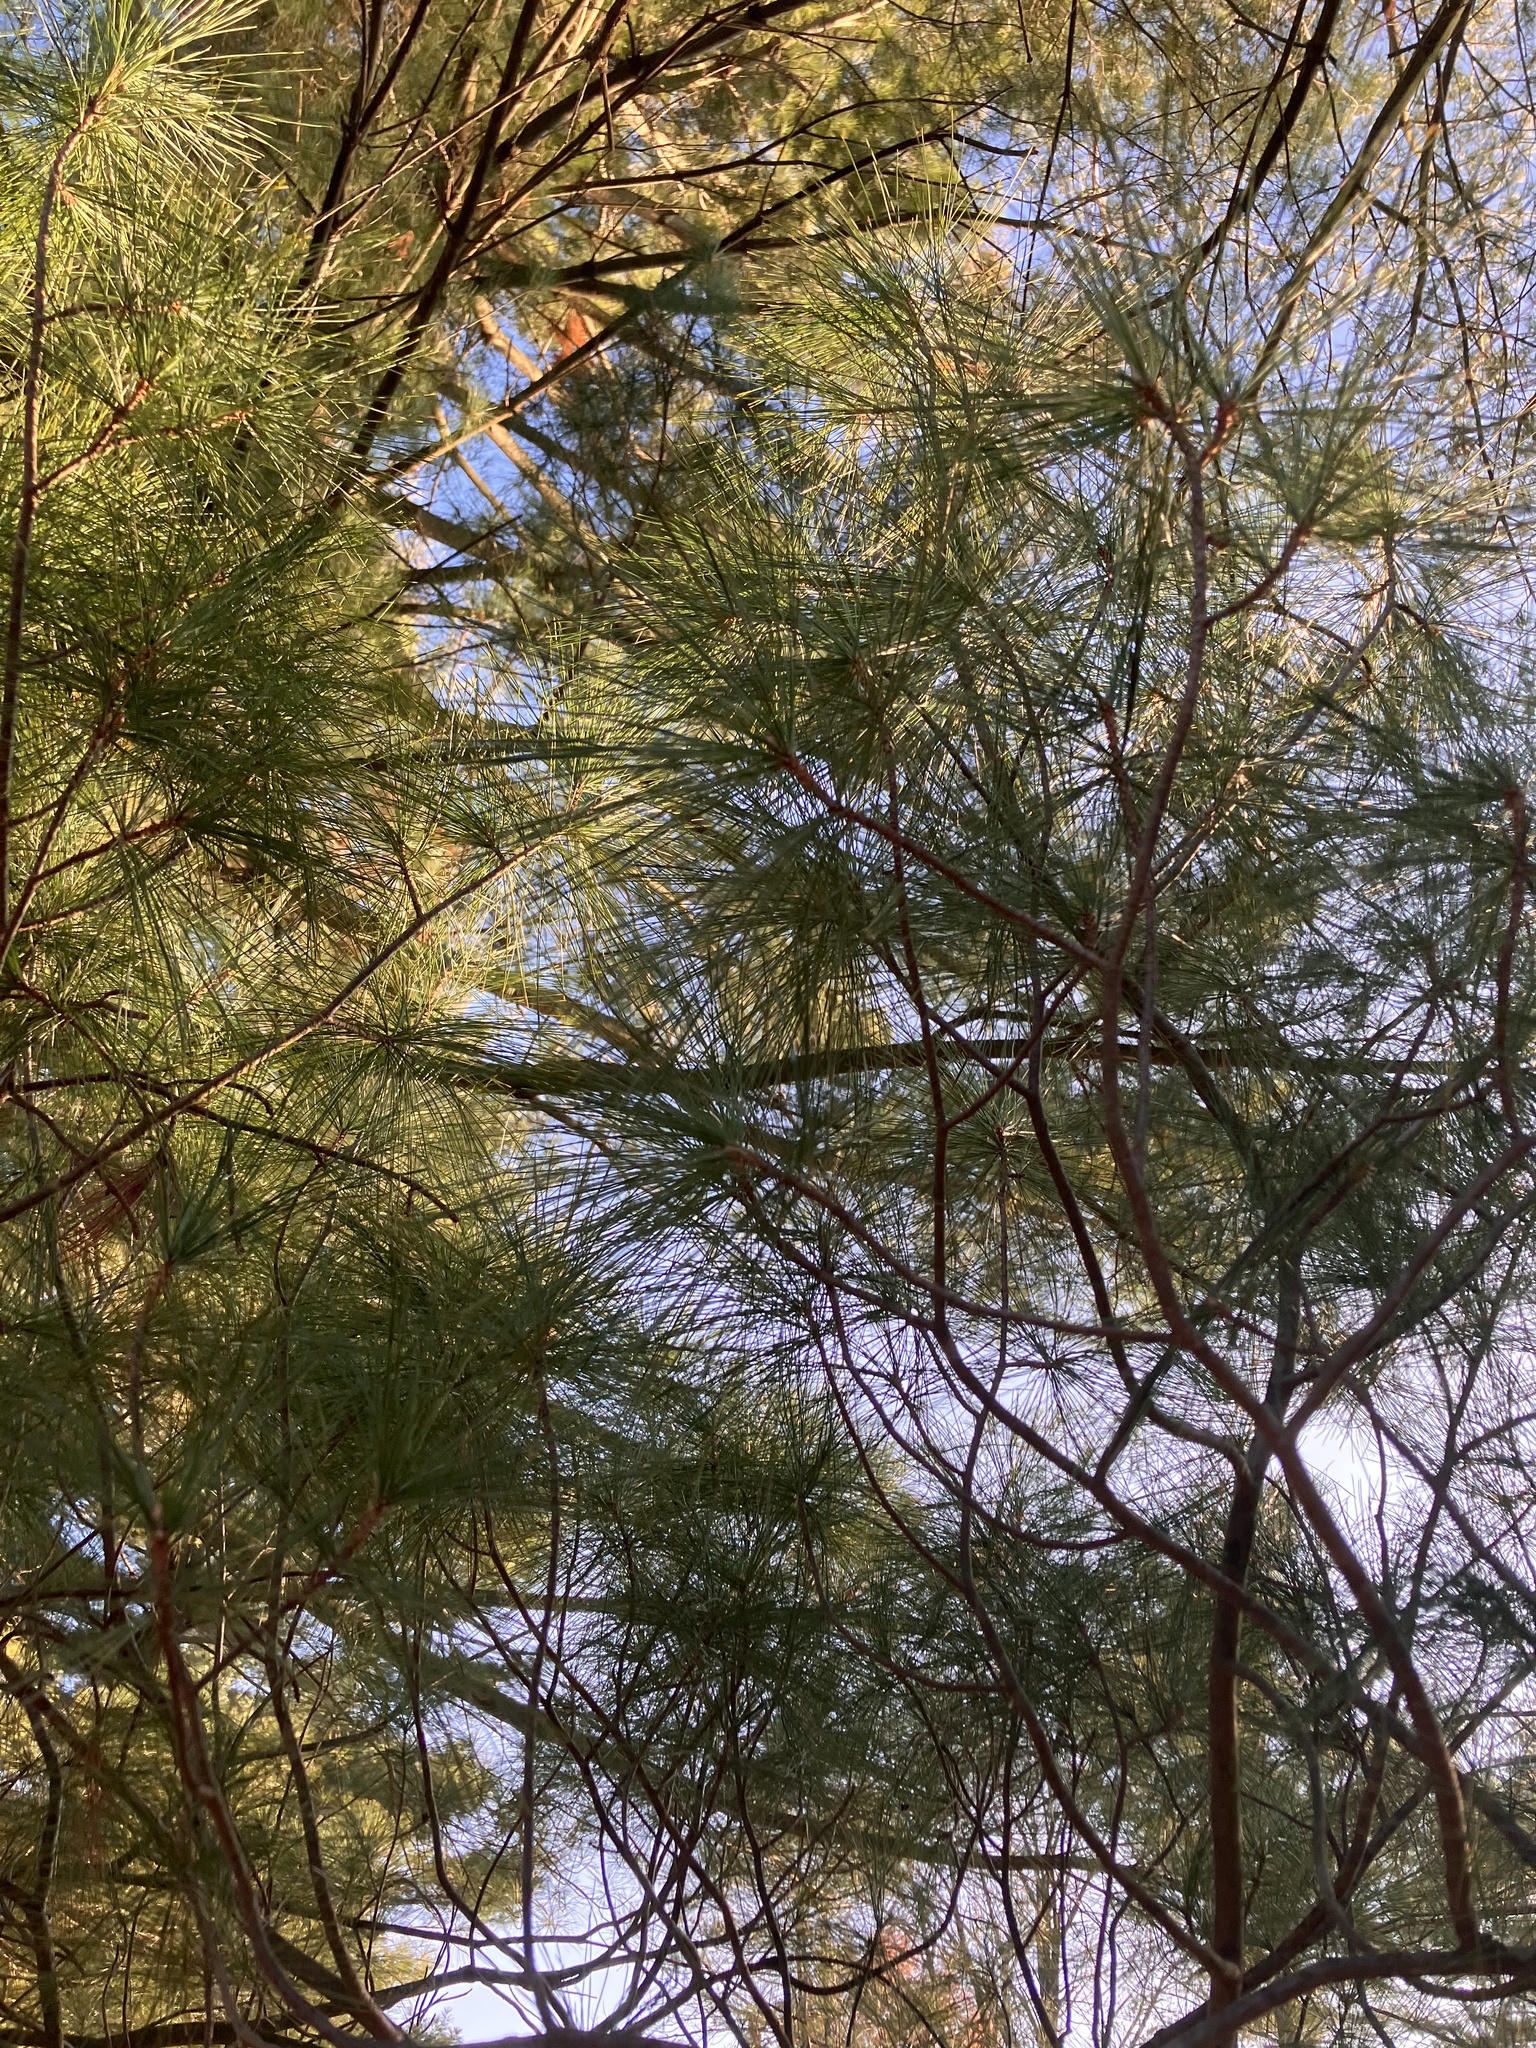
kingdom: Plantae
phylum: Tracheophyta
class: Pinopsida
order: Pinales
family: Pinaceae
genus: Pinus
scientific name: Pinus strobus
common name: Weymouth pine
